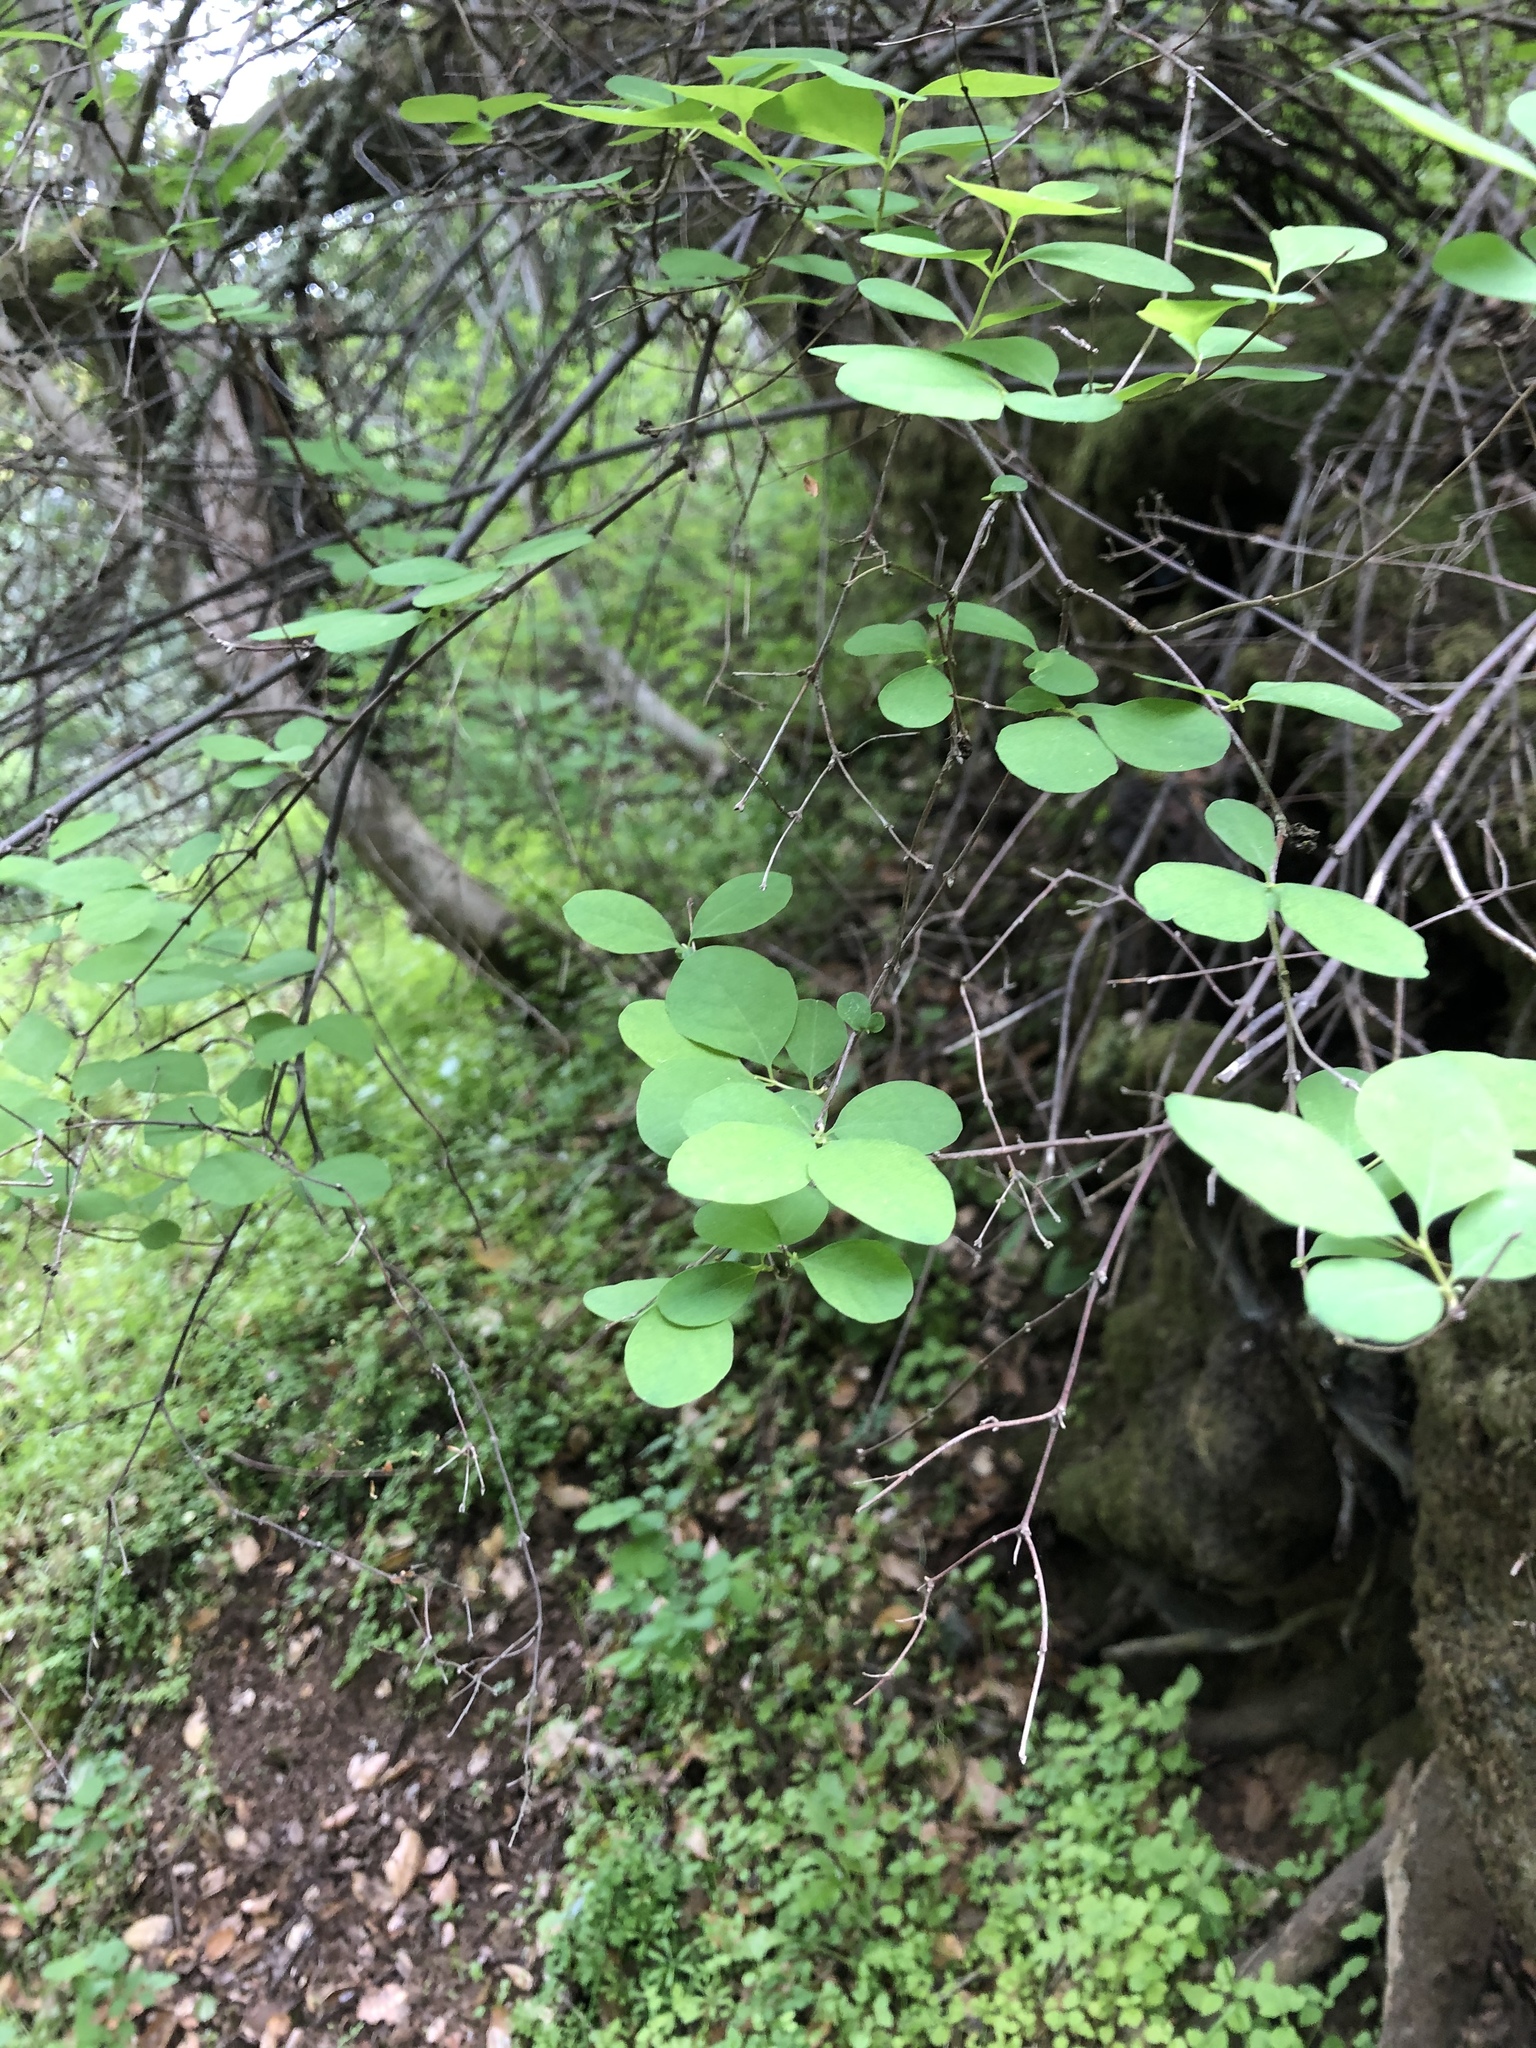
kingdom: Plantae
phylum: Tracheophyta
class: Magnoliopsida
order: Dipsacales
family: Caprifoliaceae
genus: Symphoricarpos
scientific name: Symphoricarpos albus
